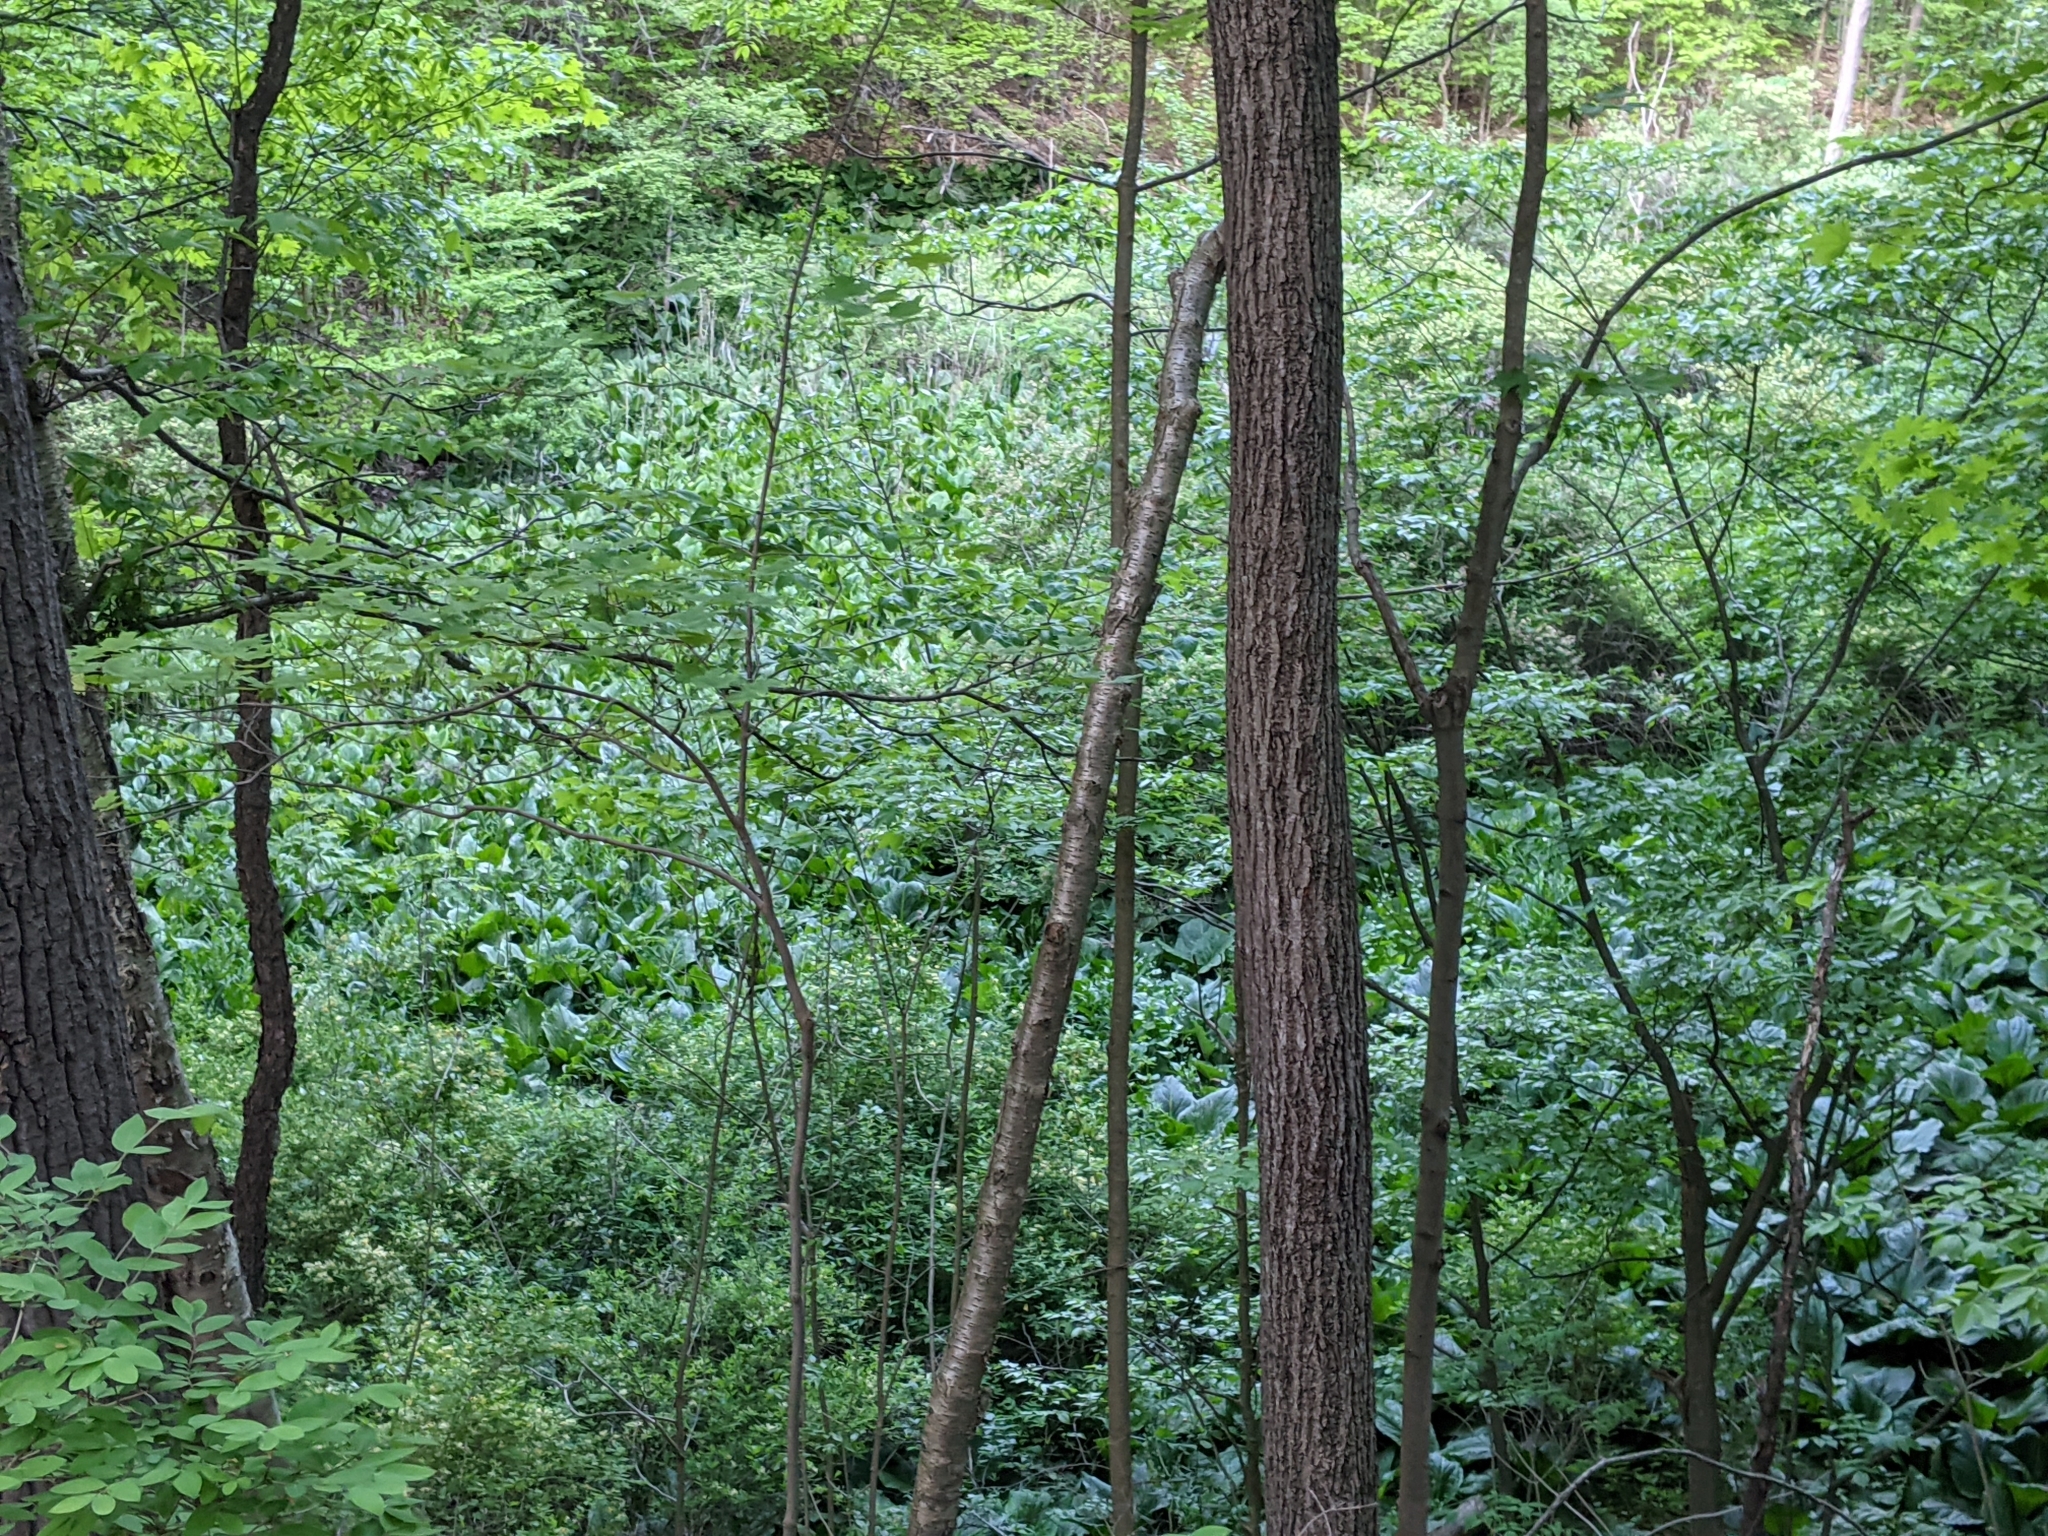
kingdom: Plantae
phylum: Tracheophyta
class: Liliopsida
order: Alismatales
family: Araceae
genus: Symplocarpus
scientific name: Symplocarpus foetidus
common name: Eastern skunk cabbage
